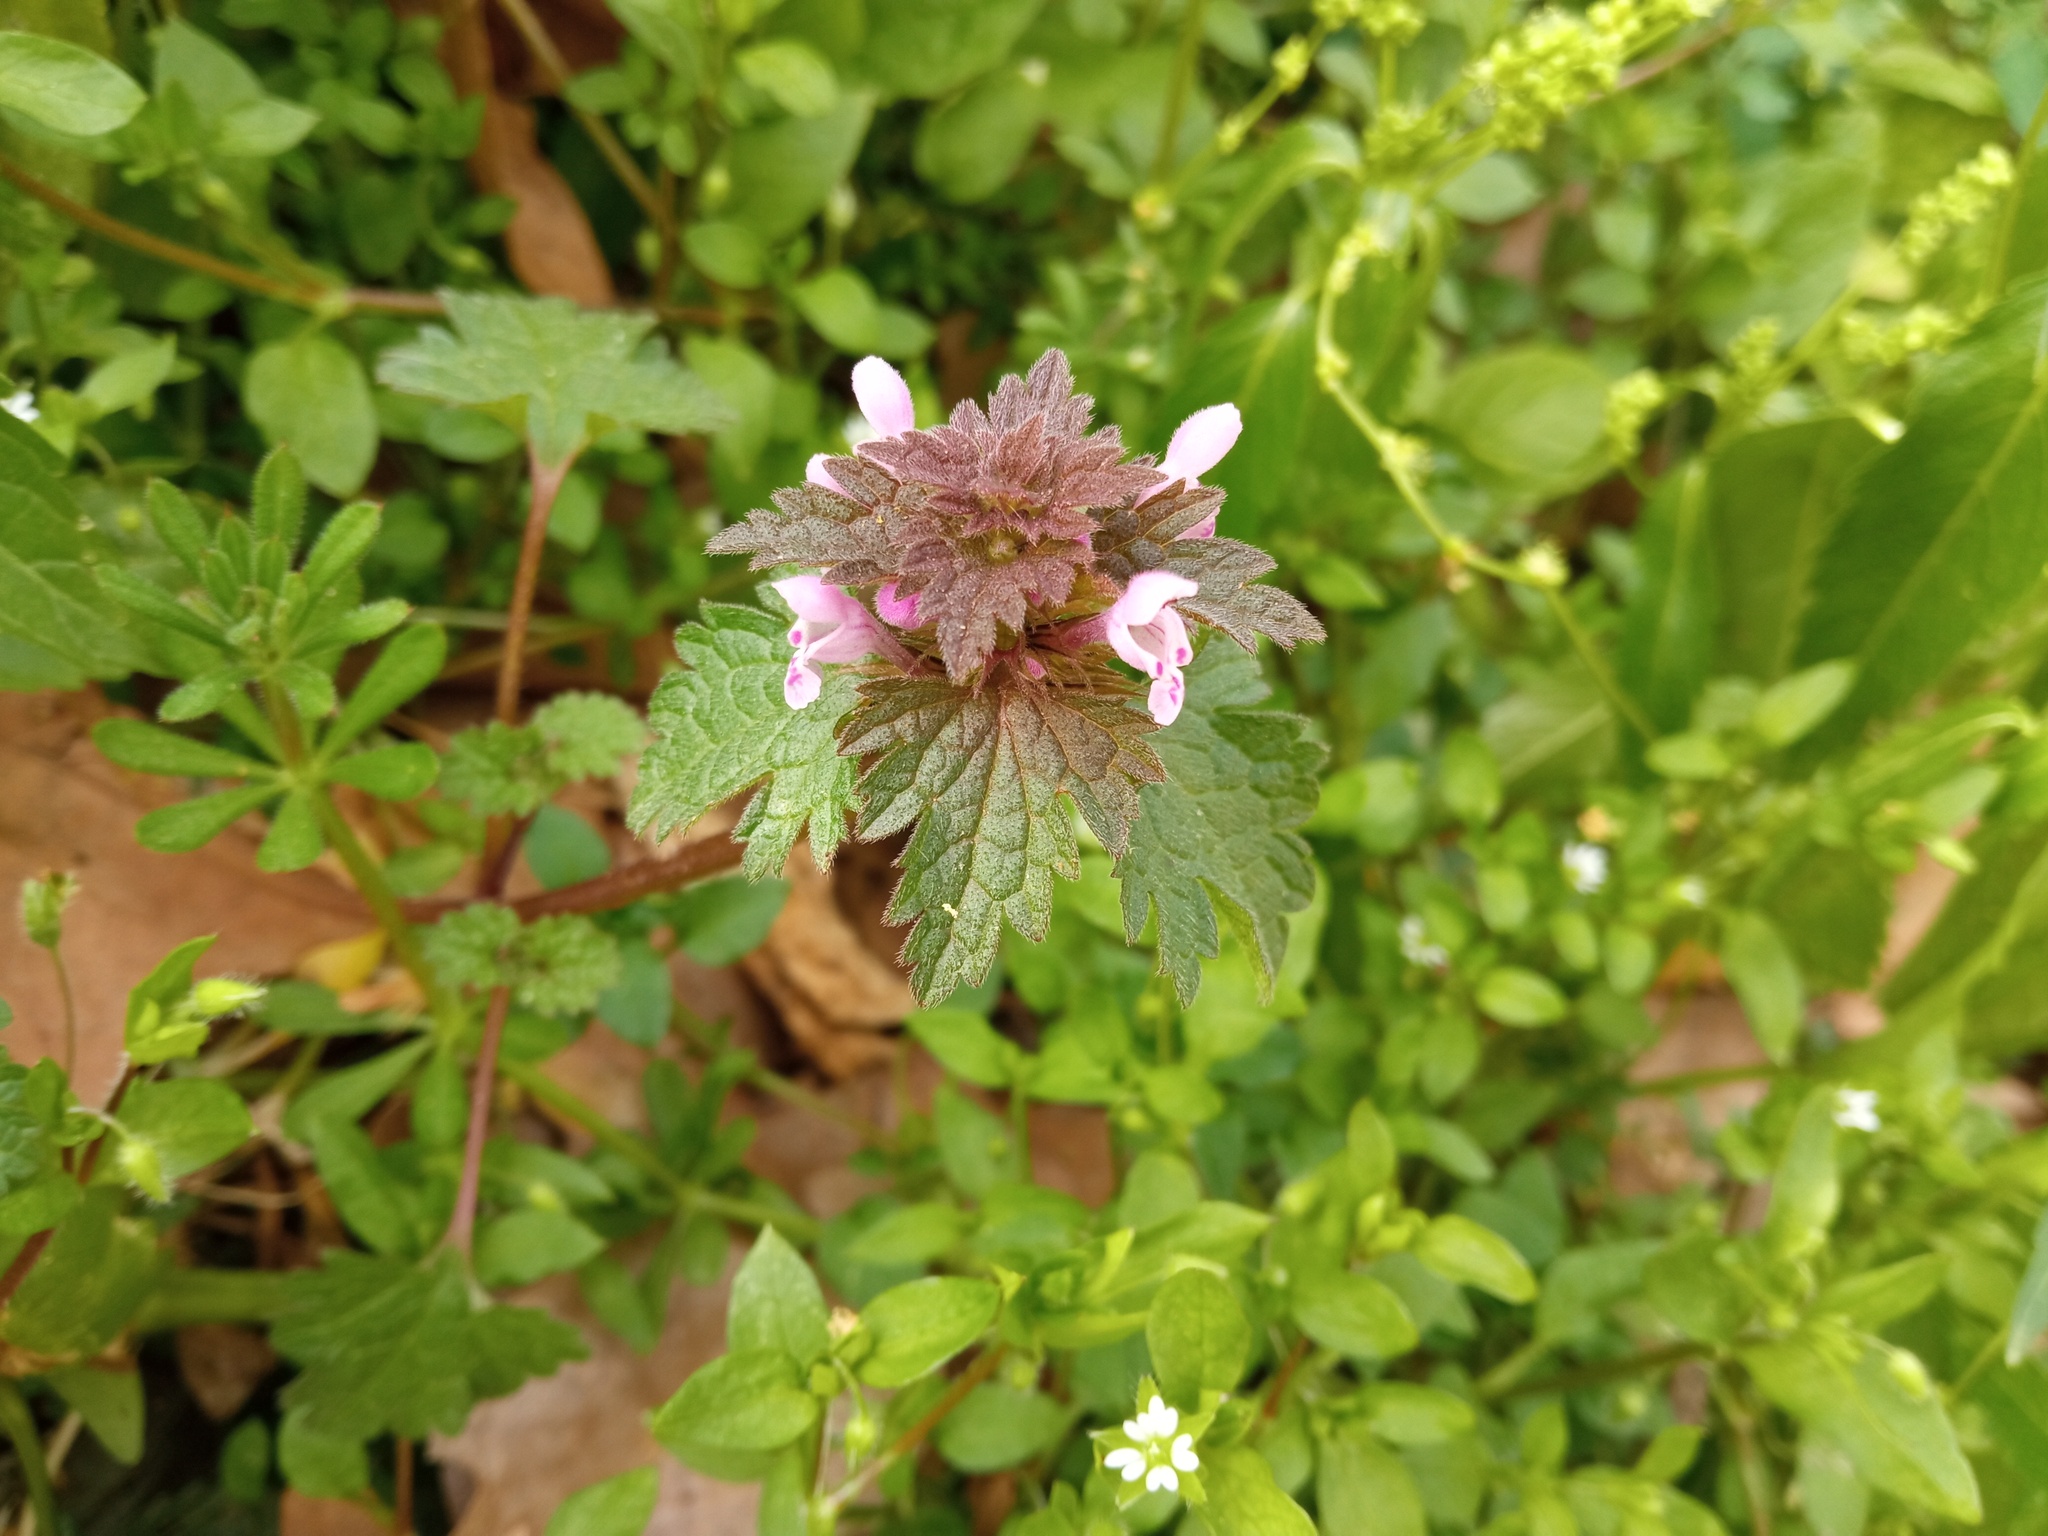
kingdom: Plantae
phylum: Tracheophyta
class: Magnoliopsida
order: Lamiales
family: Lamiaceae
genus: Lamium
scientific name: Lamium hybridum
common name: Cut-leaved dead-nettle
